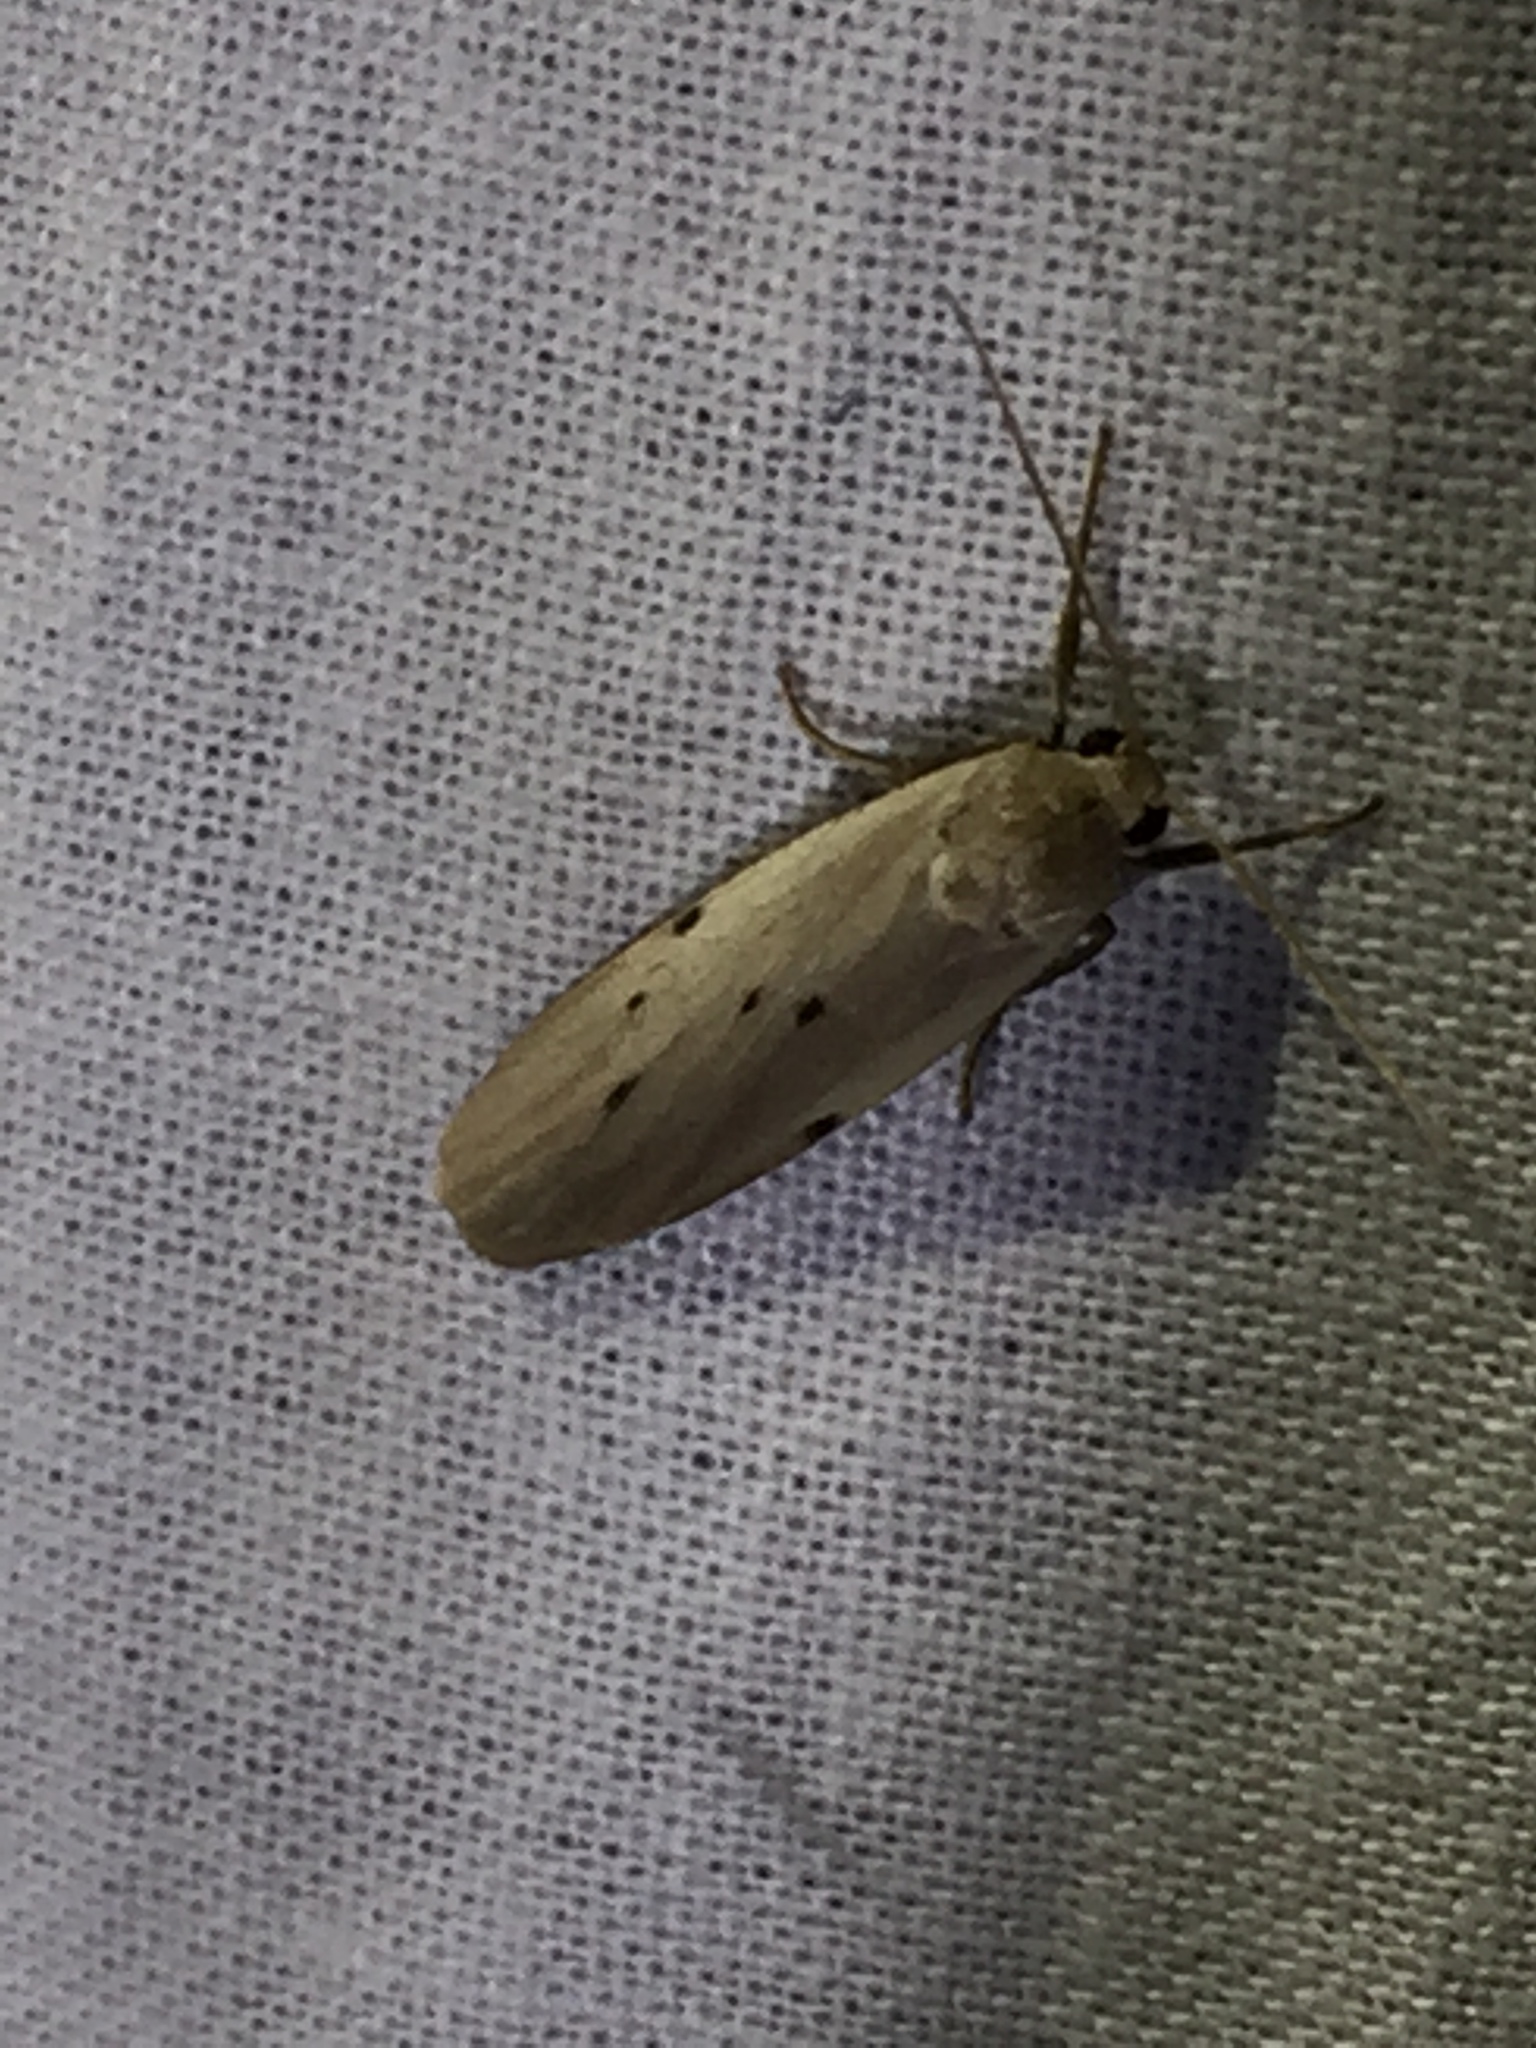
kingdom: Animalia
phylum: Arthropoda
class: Insecta
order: Lepidoptera
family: Erebidae
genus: Pelosia
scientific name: Pelosia muscerda
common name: Dotted footman
